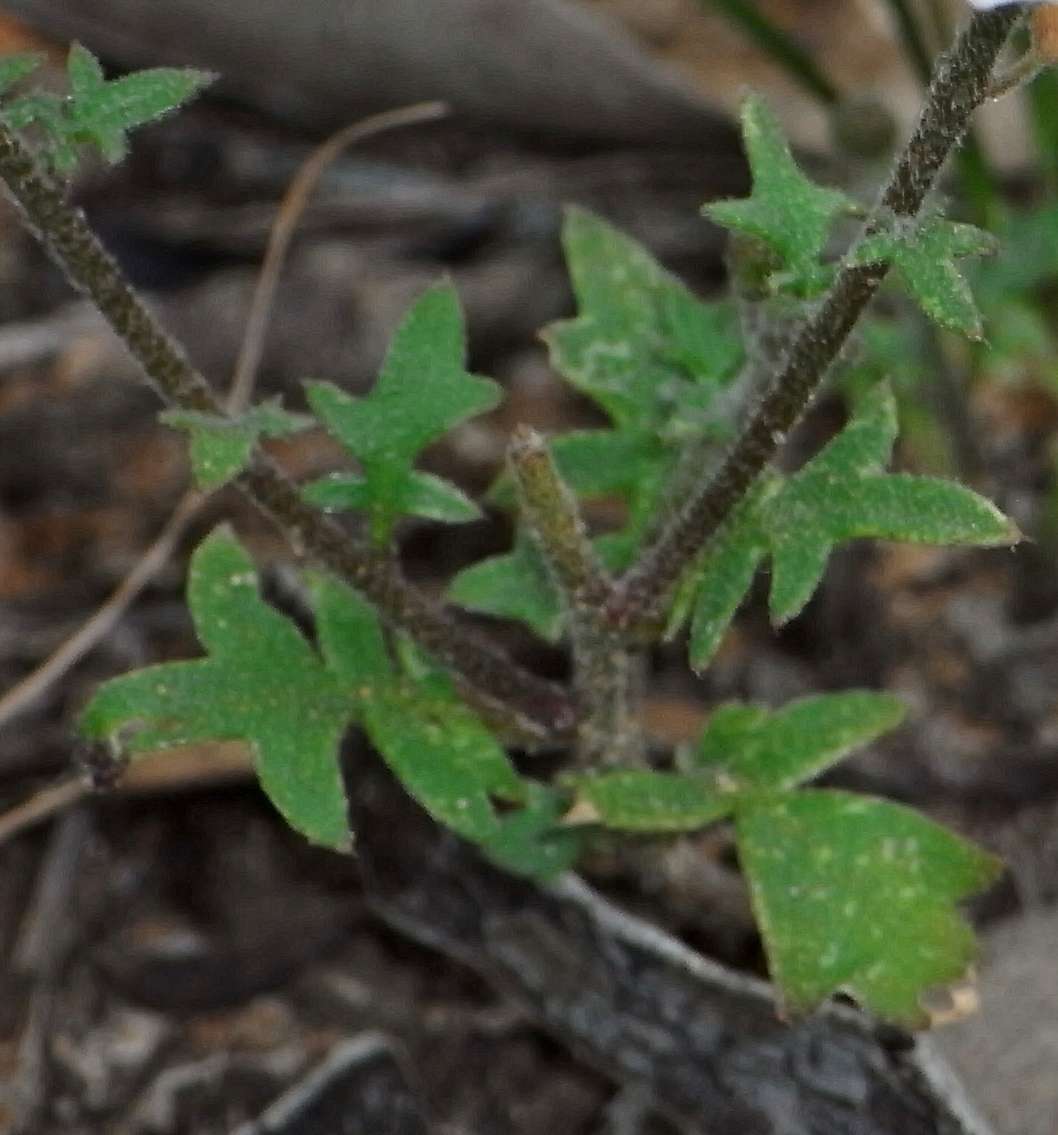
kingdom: Plantae
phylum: Tracheophyta
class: Magnoliopsida
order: Brassicales
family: Brassicaceae
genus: Harmsiodoxa
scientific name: Harmsiodoxa blennodioides
